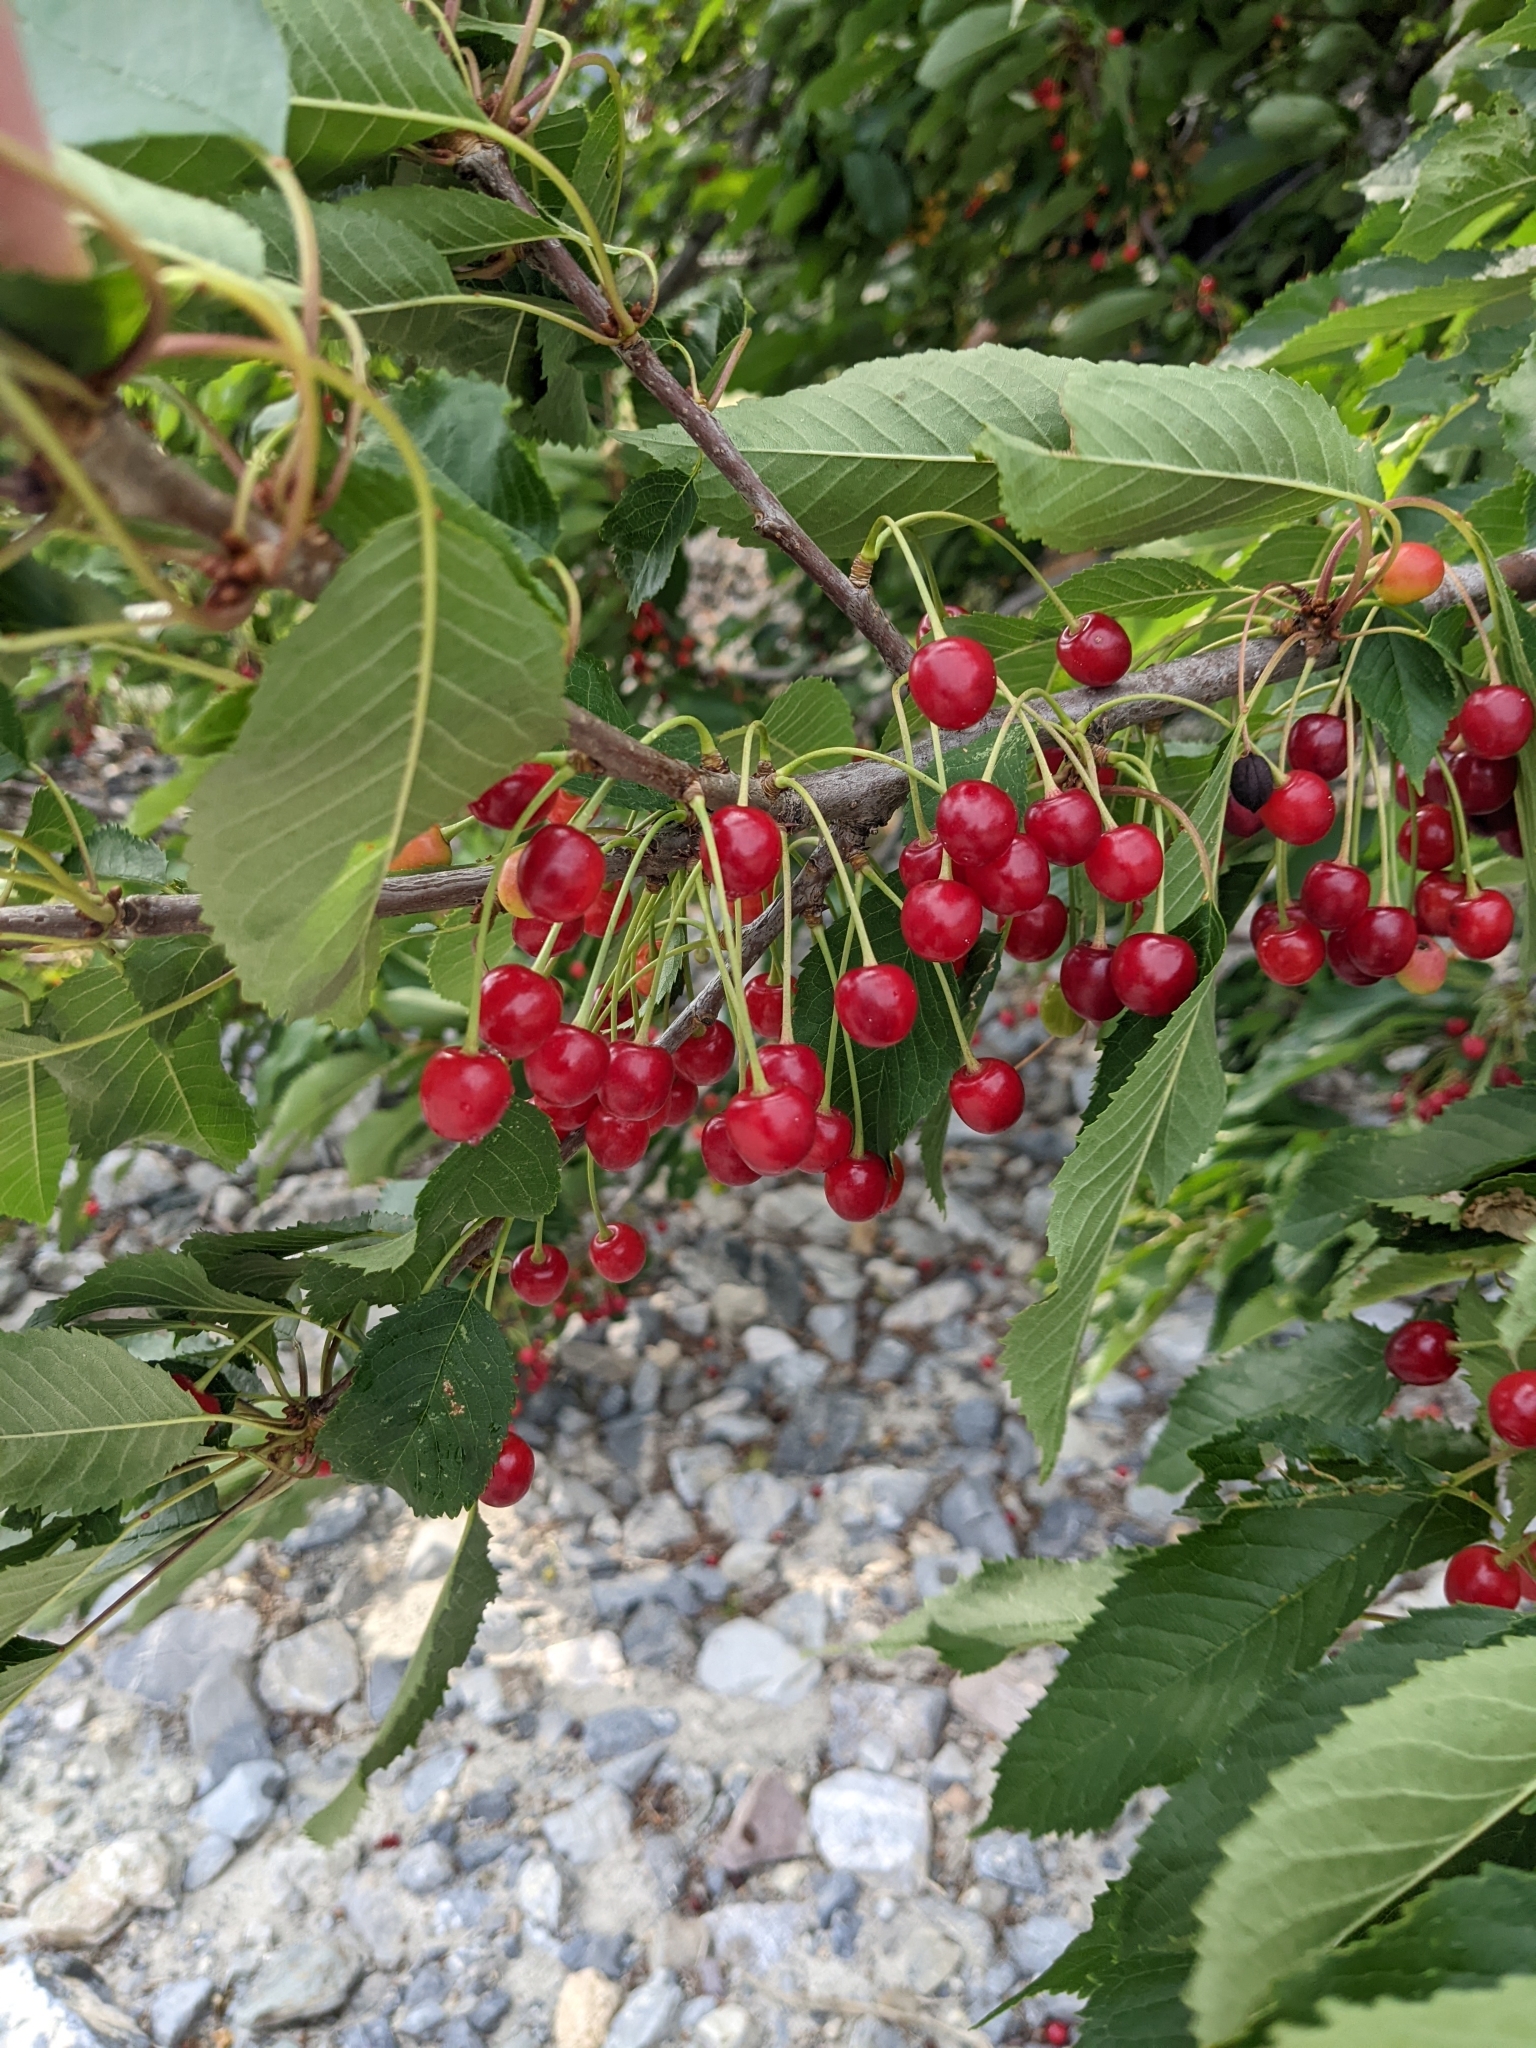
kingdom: Plantae
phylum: Tracheophyta
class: Magnoliopsida
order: Rosales
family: Rosaceae
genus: Prunus
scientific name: Prunus avium
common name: Sweet cherry
